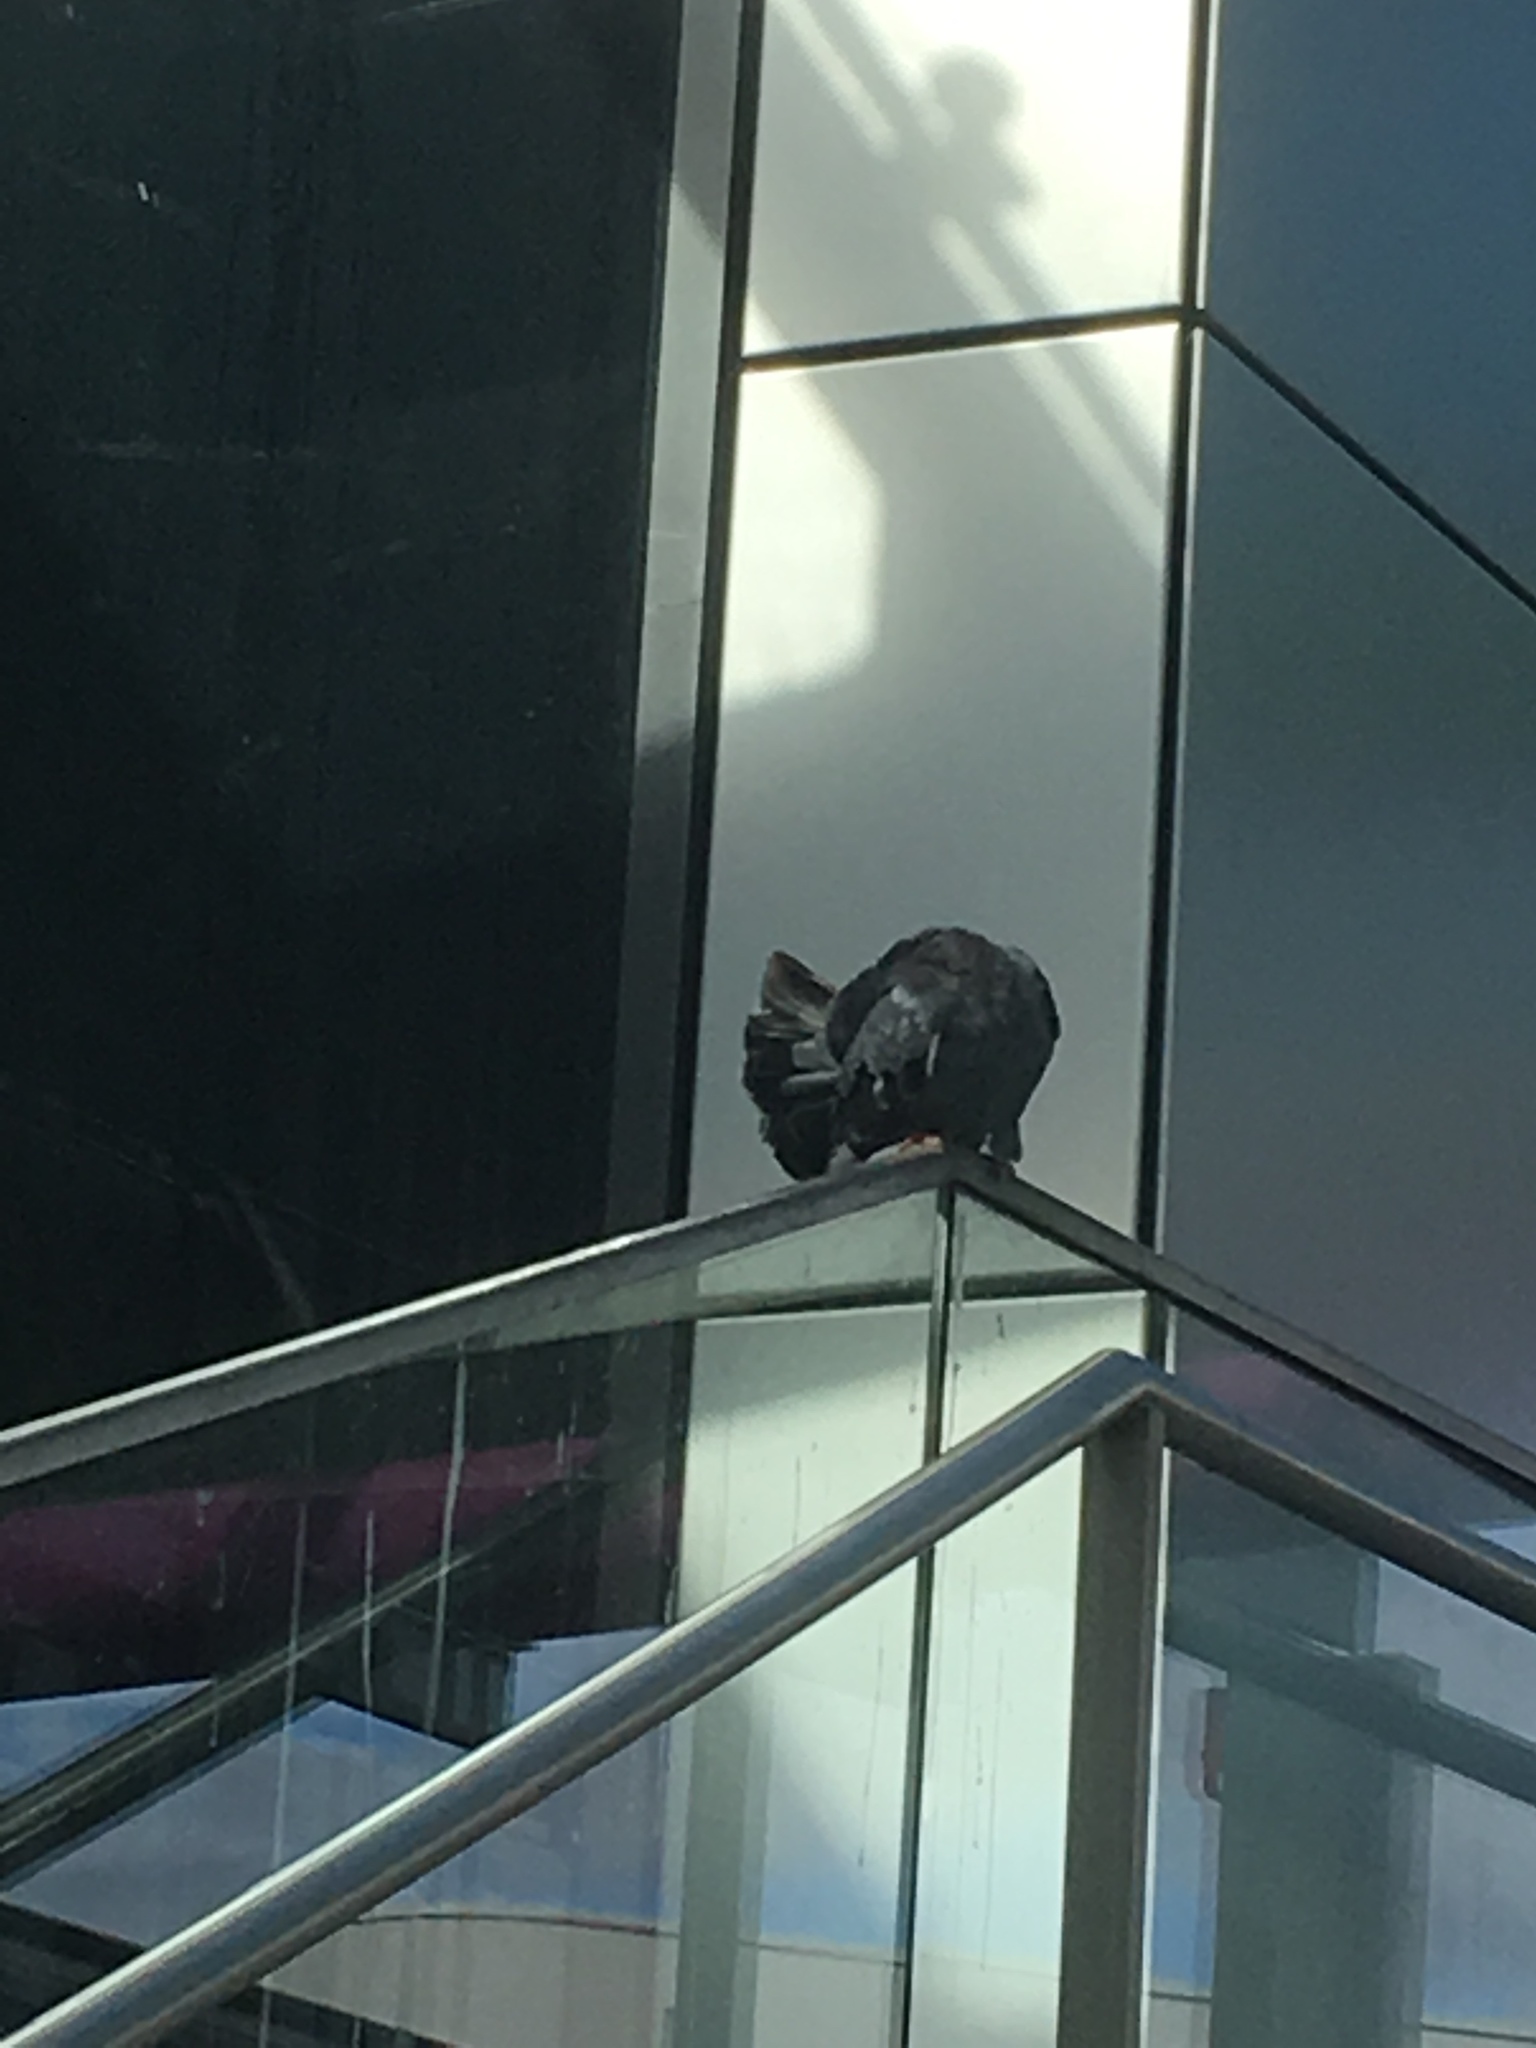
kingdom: Animalia
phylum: Chordata
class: Aves
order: Columbiformes
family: Columbidae
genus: Columba
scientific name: Columba livia
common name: Rock pigeon
